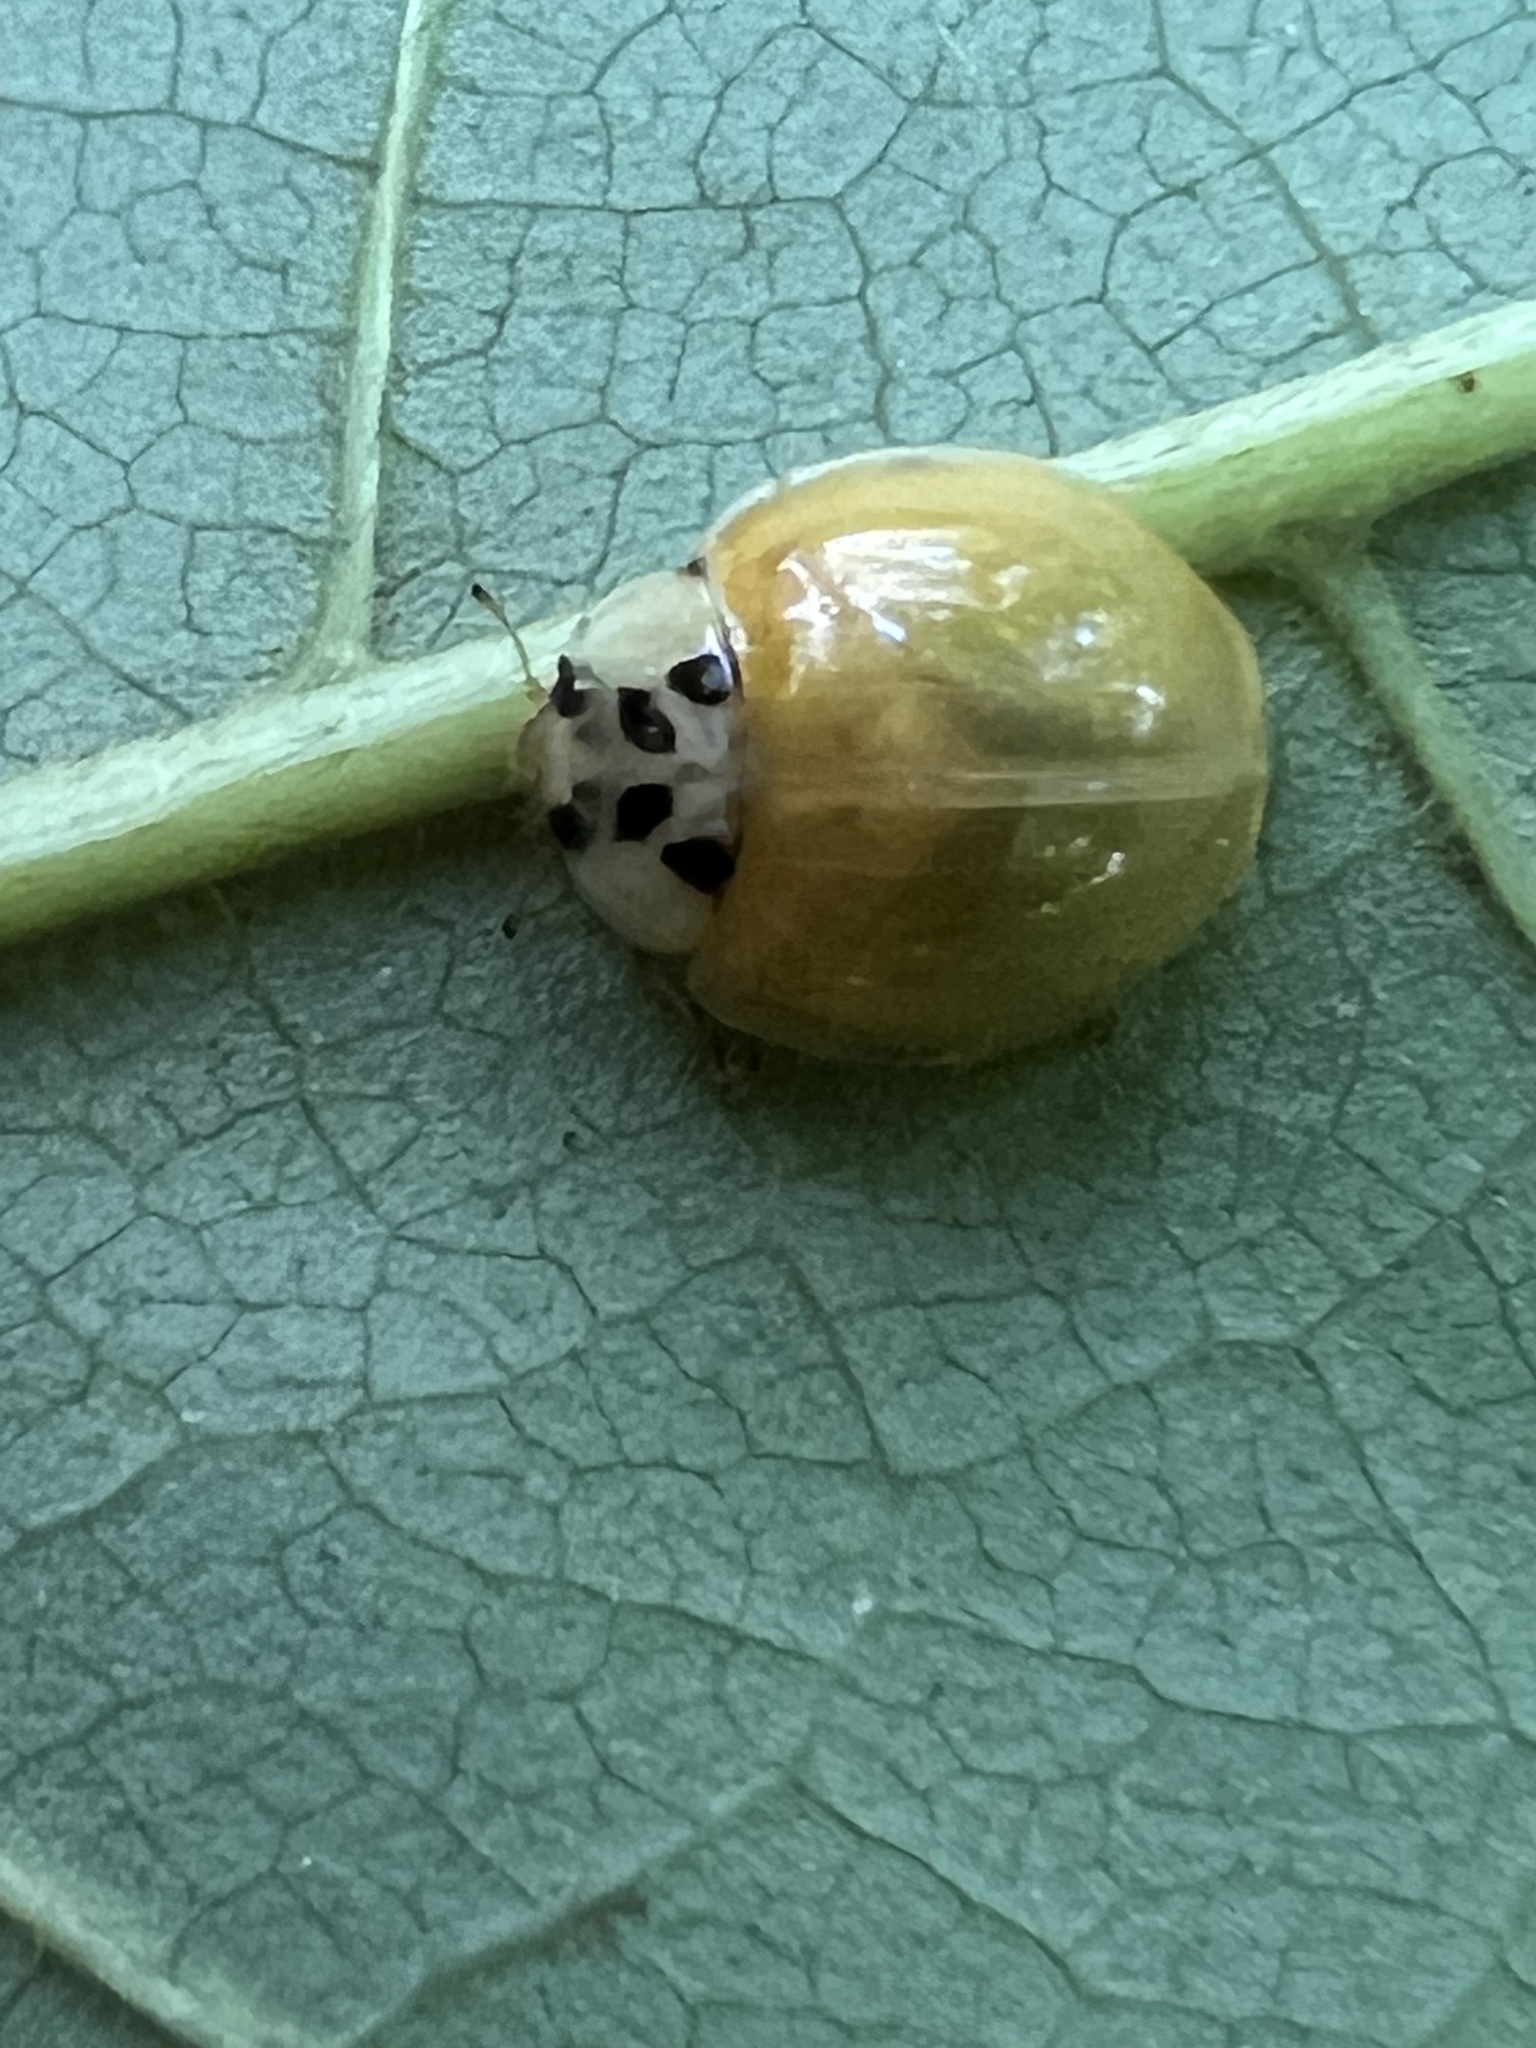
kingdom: Animalia
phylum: Arthropoda
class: Insecta
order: Coleoptera
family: Coccinellidae
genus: Harmonia
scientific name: Harmonia axyridis
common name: Harlequin ladybird
